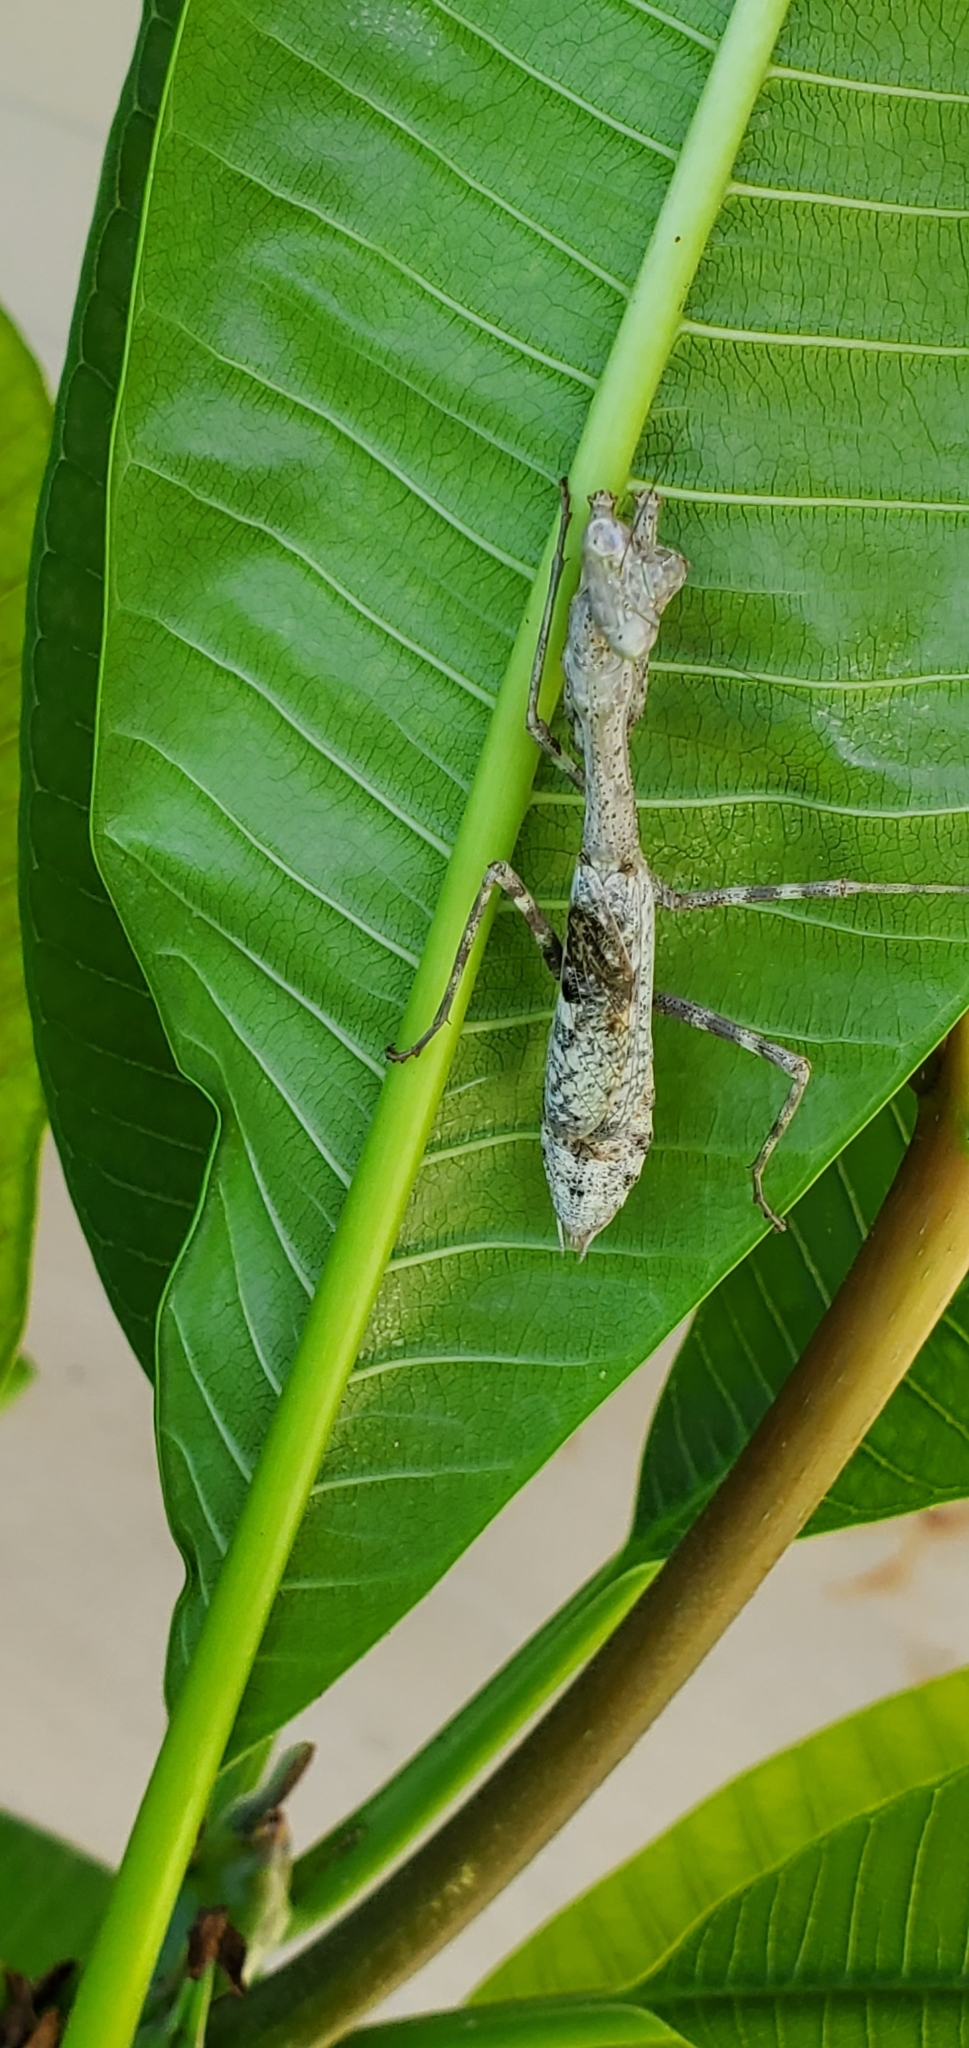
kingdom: Animalia
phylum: Arthropoda
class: Insecta
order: Mantodea
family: Mantidae
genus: Stagmomantis
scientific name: Stagmomantis carolina
